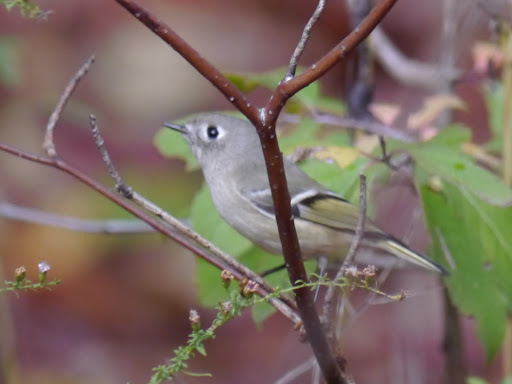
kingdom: Animalia
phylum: Chordata
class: Aves
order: Passeriformes
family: Regulidae
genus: Regulus
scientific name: Regulus calendula
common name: Ruby-crowned kinglet
